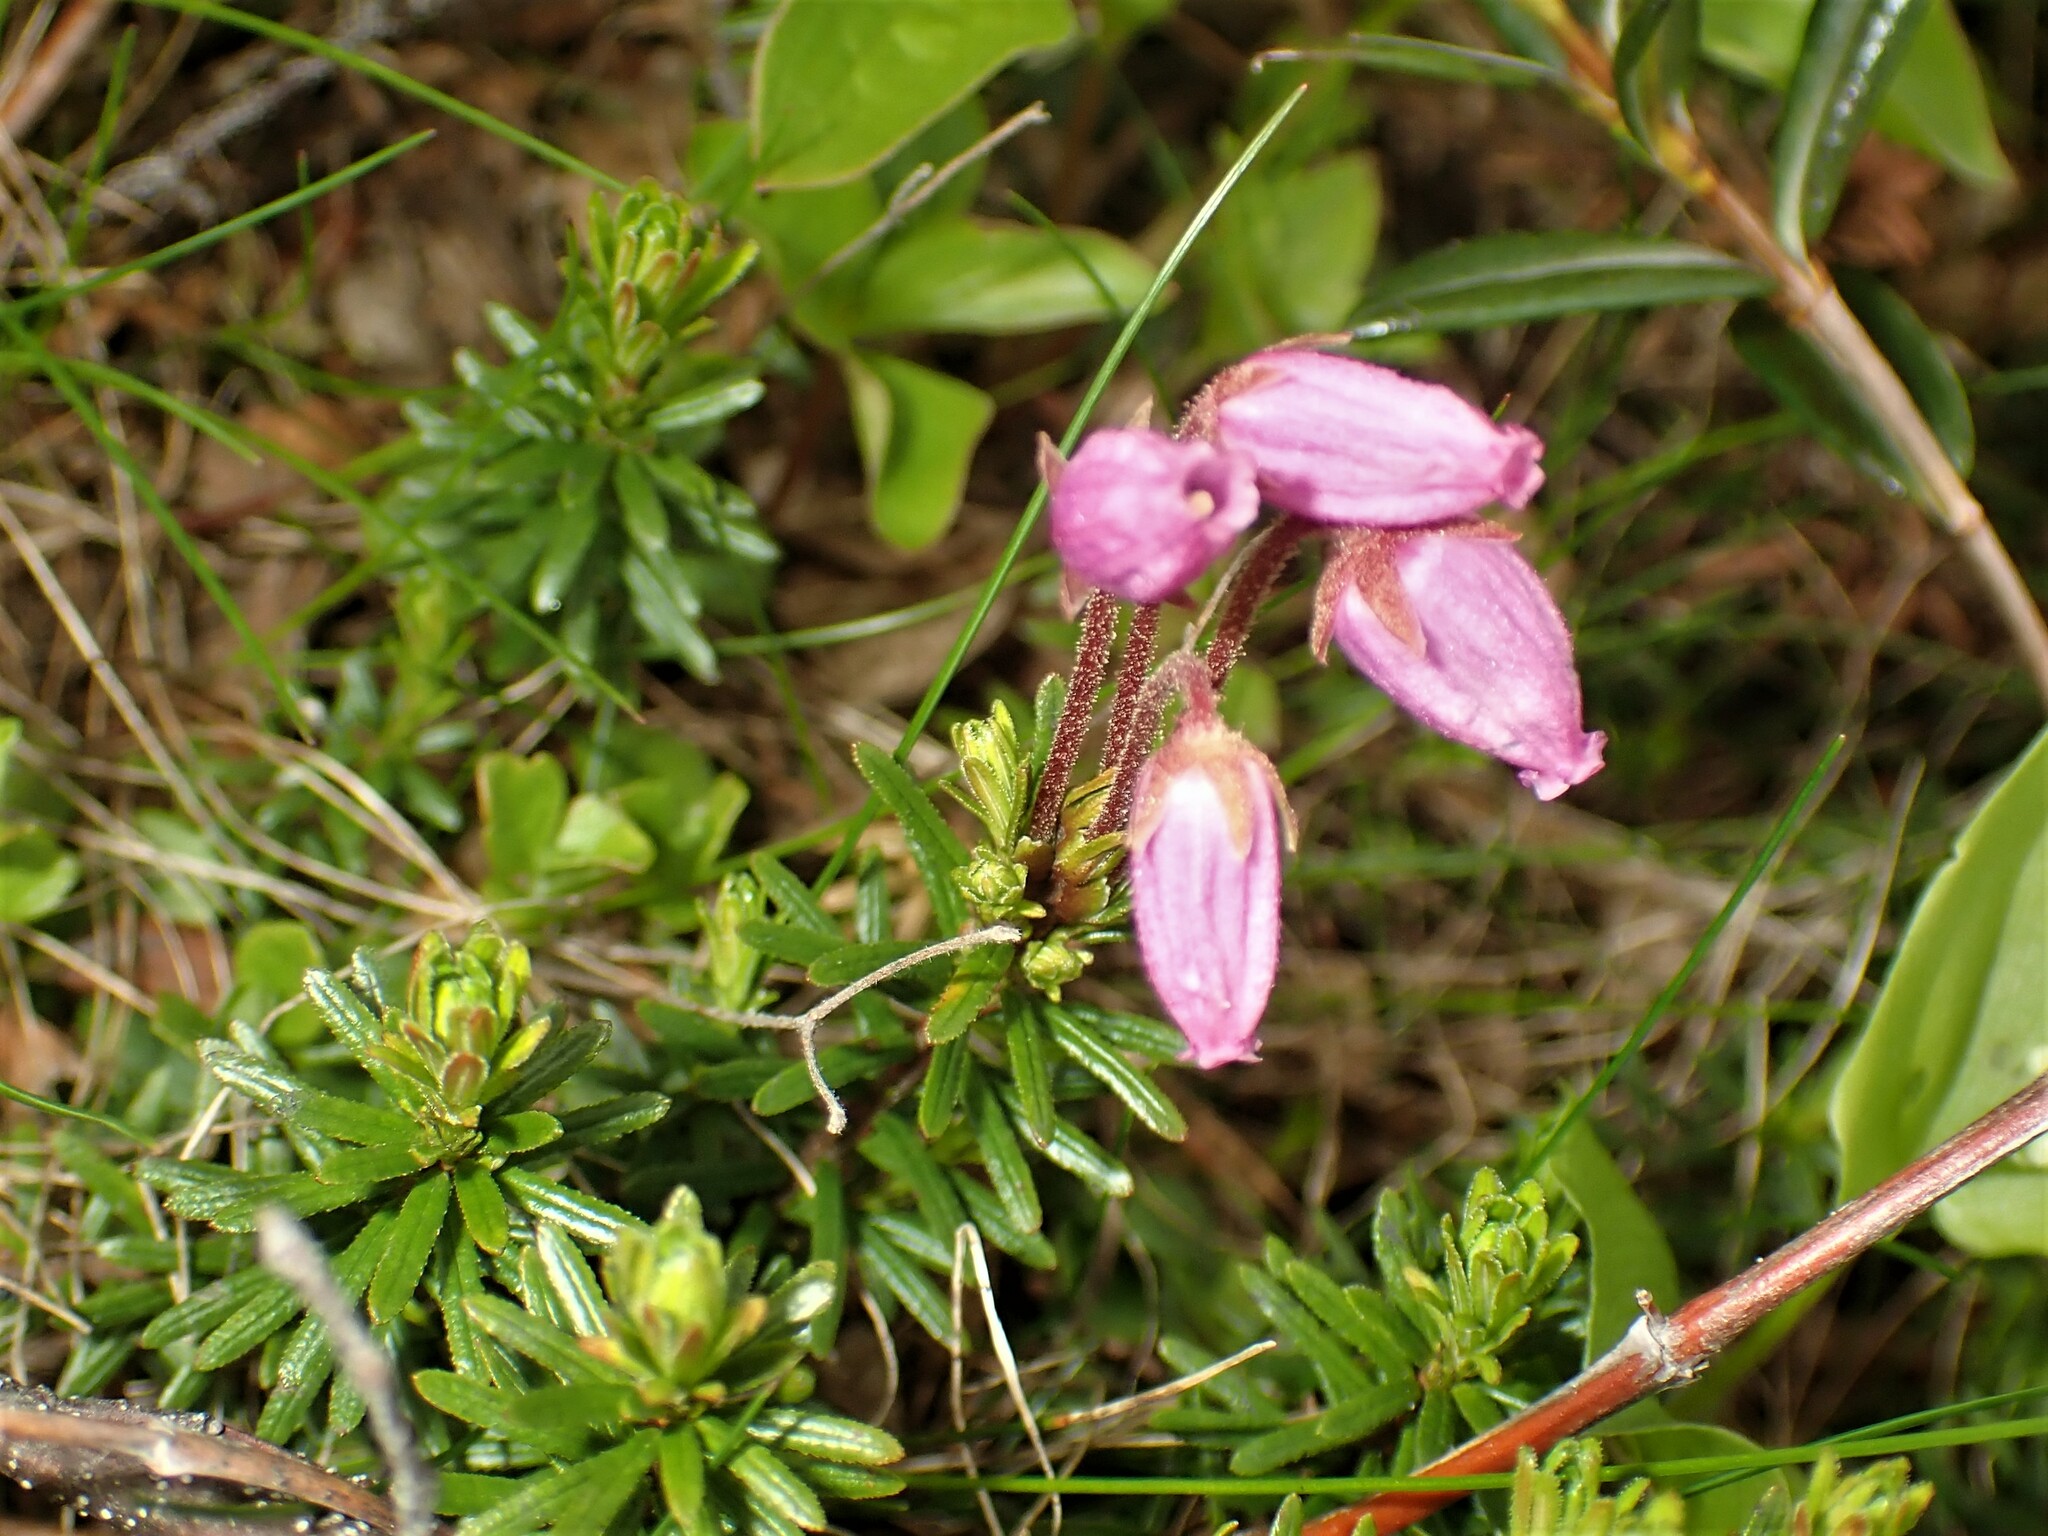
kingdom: Plantae
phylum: Tracheophyta
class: Magnoliopsida
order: Ericales
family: Ericaceae
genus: Phyllodoce
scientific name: Phyllodoce caerulea
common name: Blue heath
